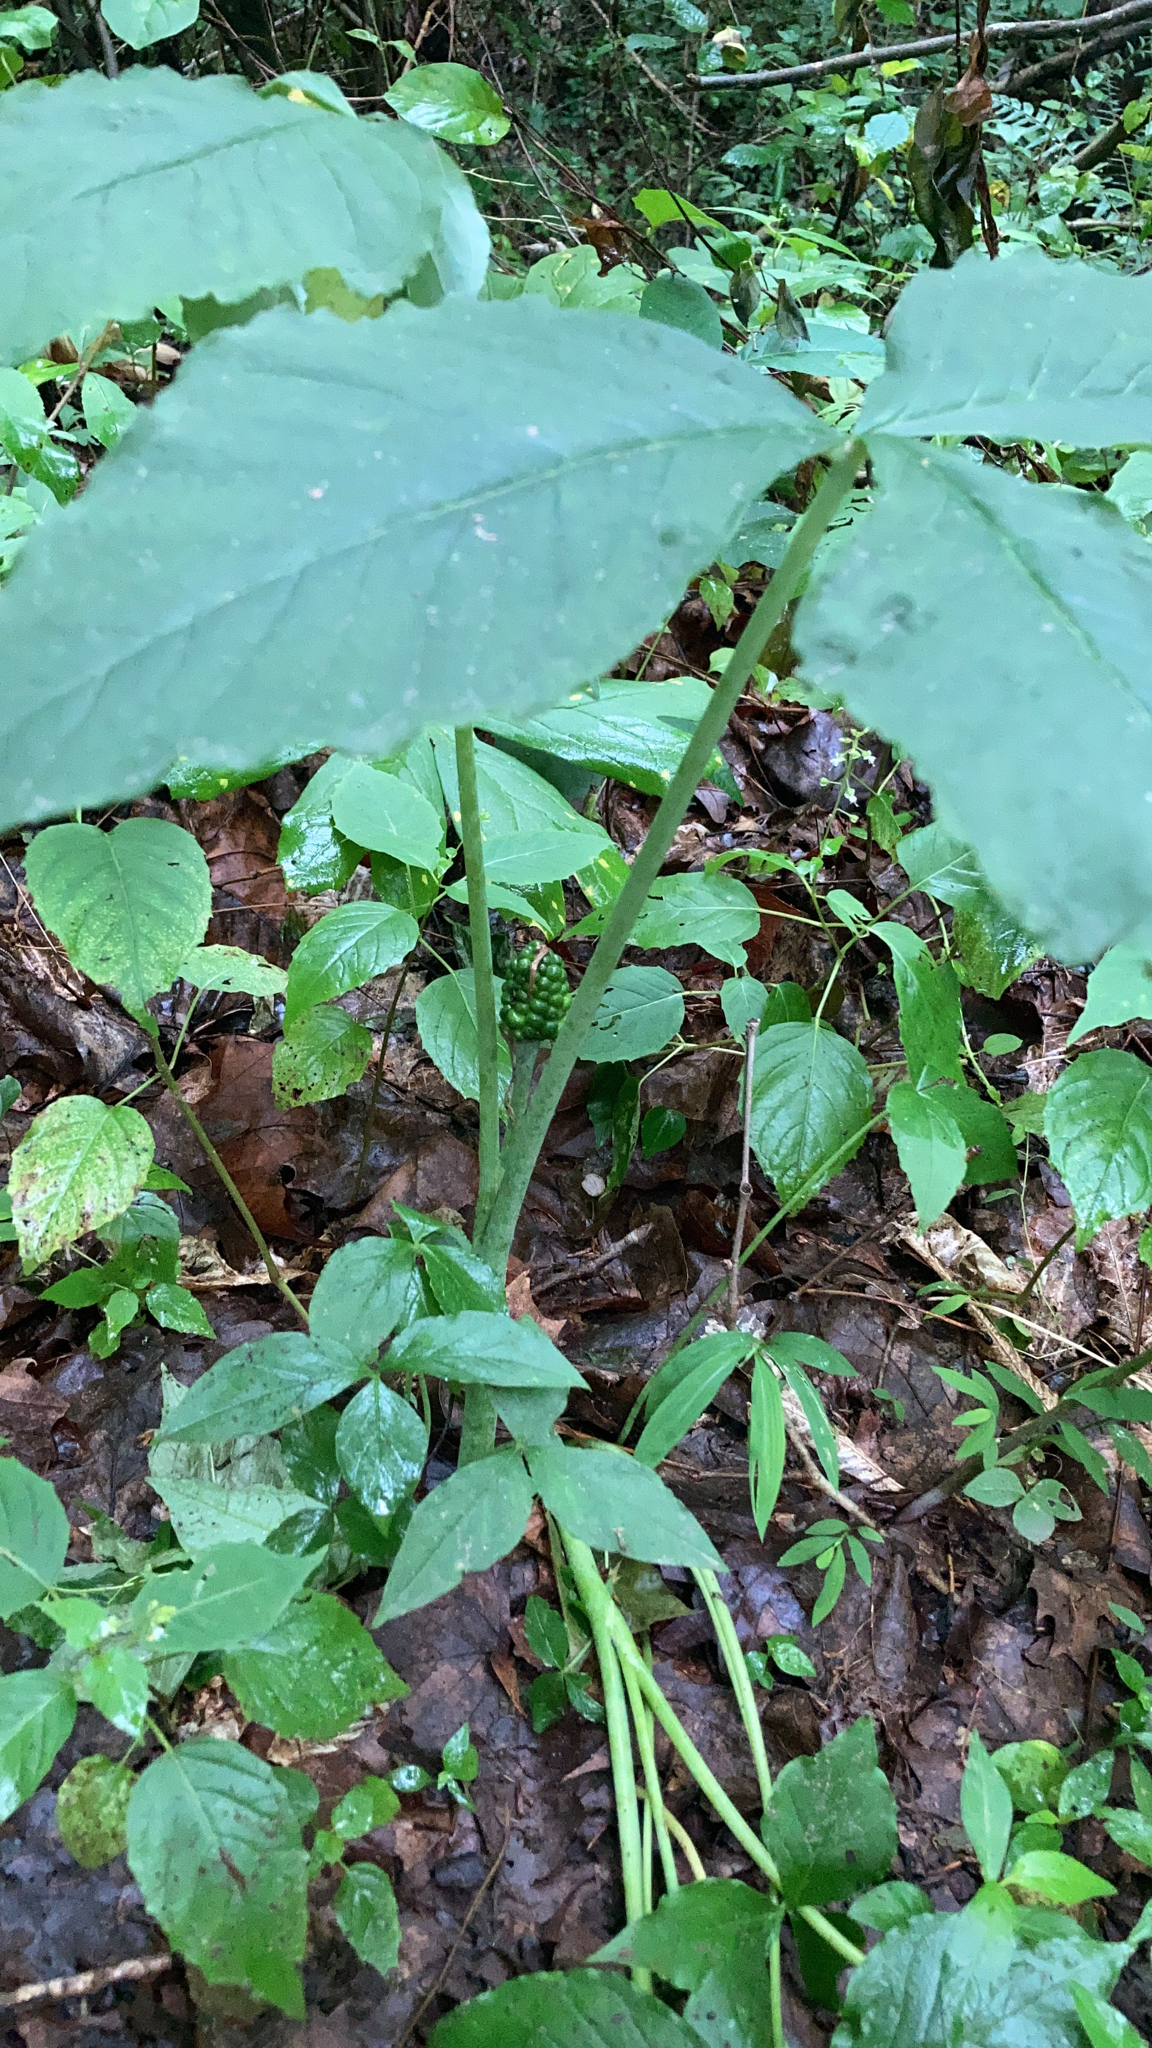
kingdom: Plantae
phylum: Tracheophyta
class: Liliopsida
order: Alismatales
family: Araceae
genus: Arisaema
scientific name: Arisaema triphyllum
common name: Jack-in-the-pulpit
